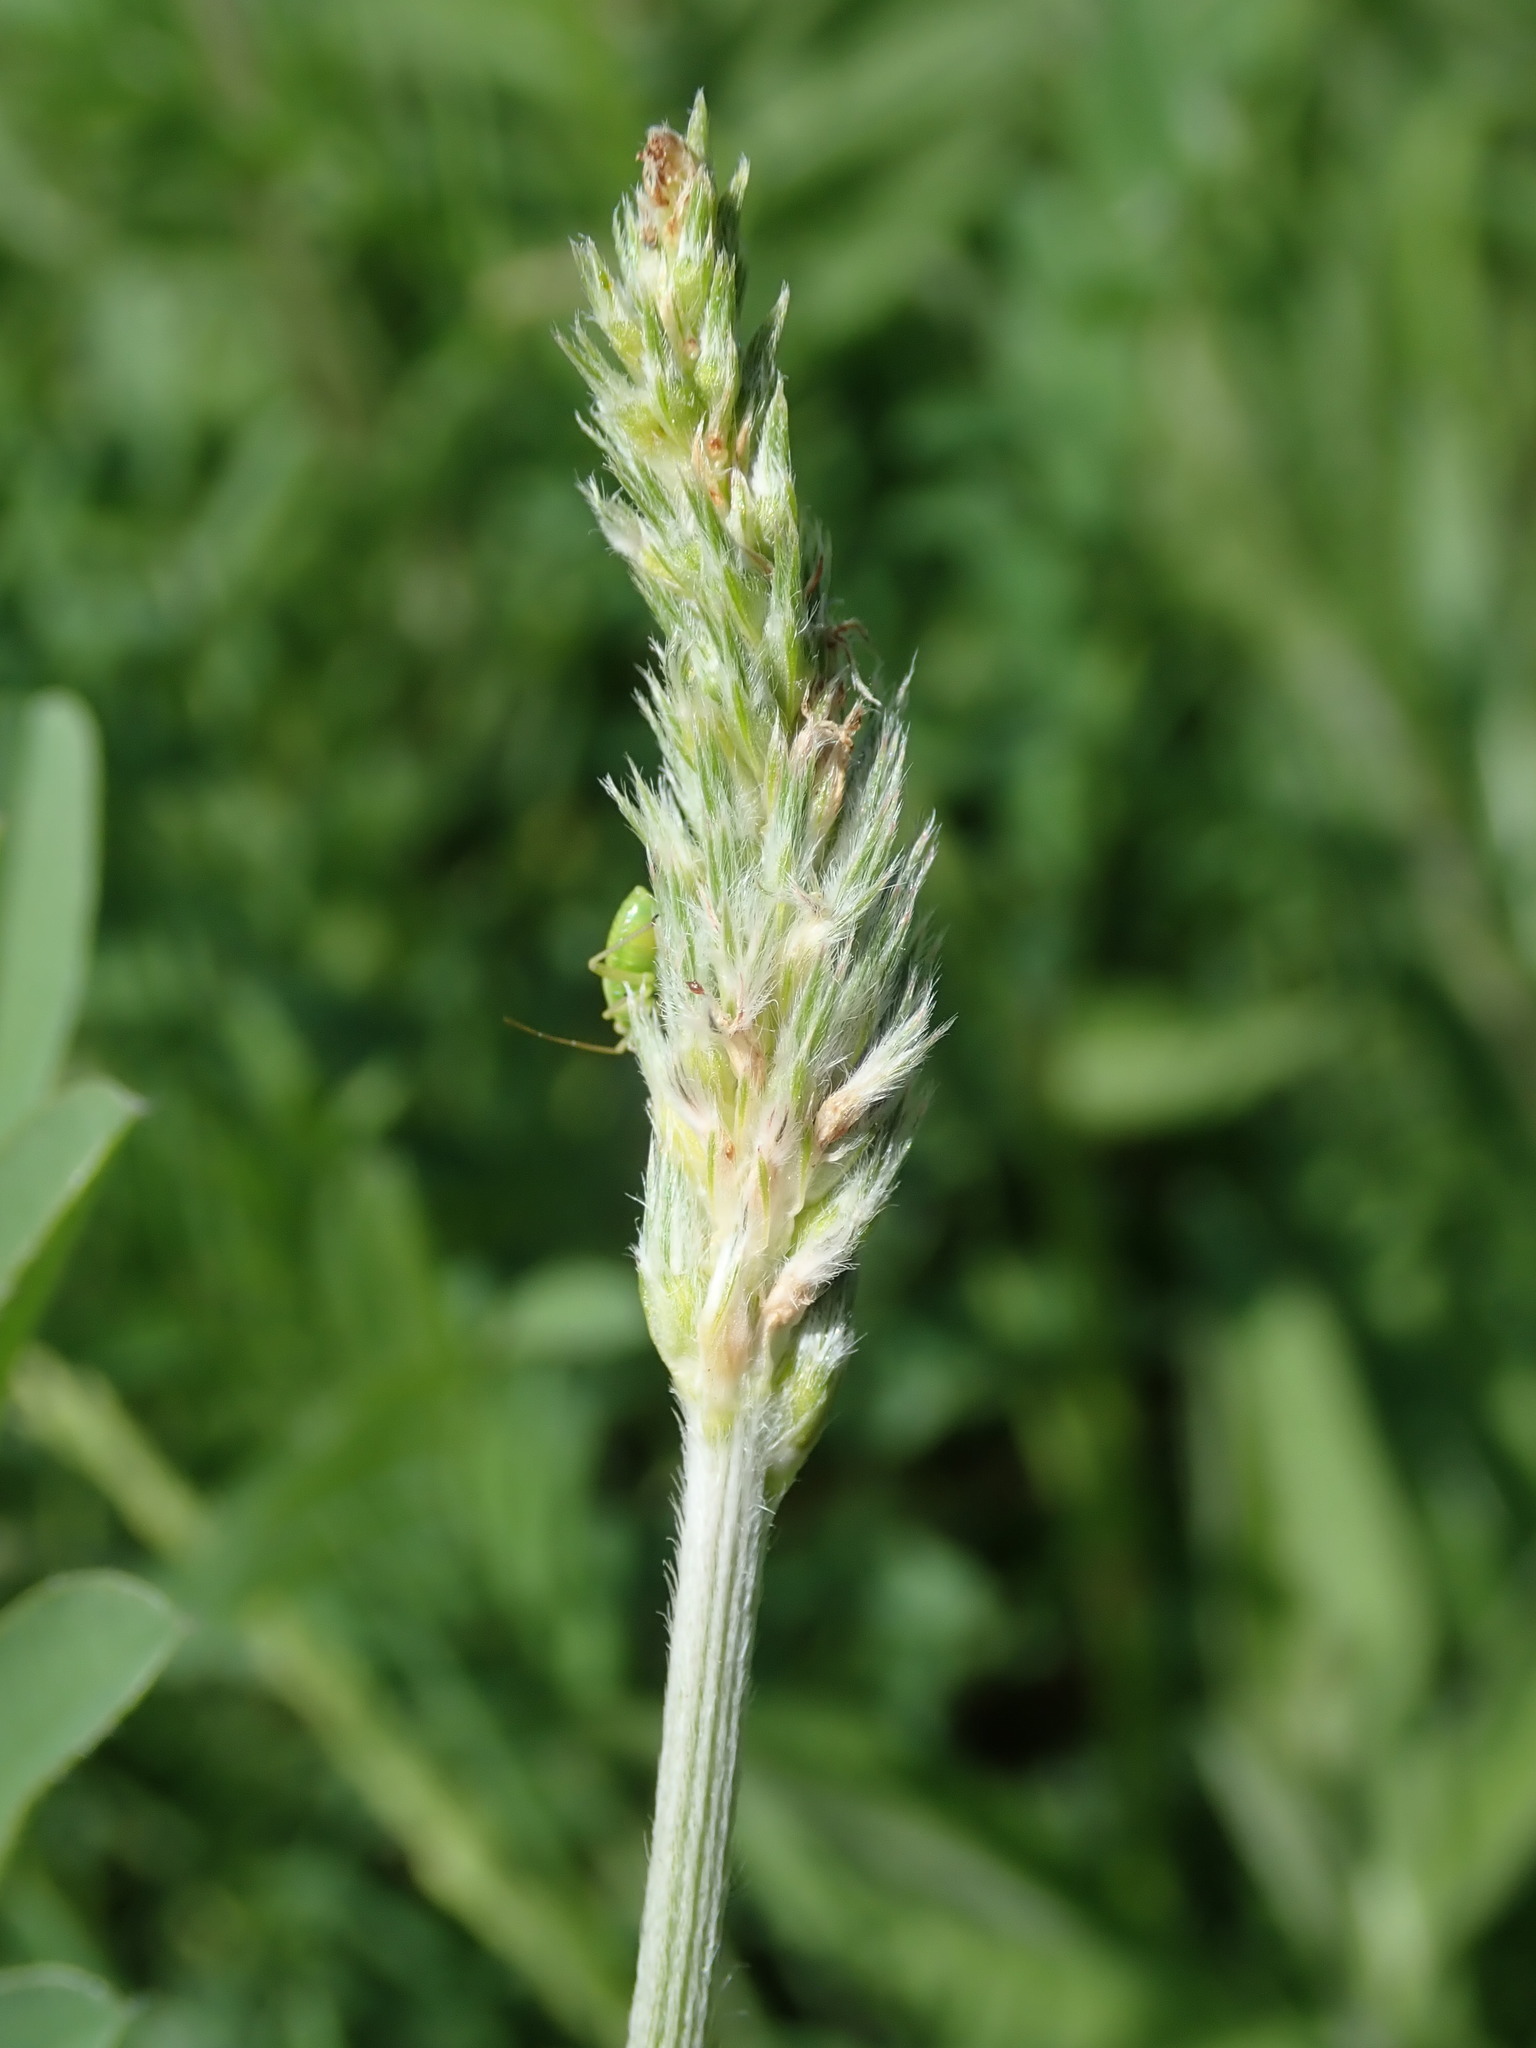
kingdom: Plantae
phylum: Tracheophyta
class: Magnoliopsida
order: Fabales
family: Fabaceae
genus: Galega
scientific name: Galega officinalis
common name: Goat's-rue
